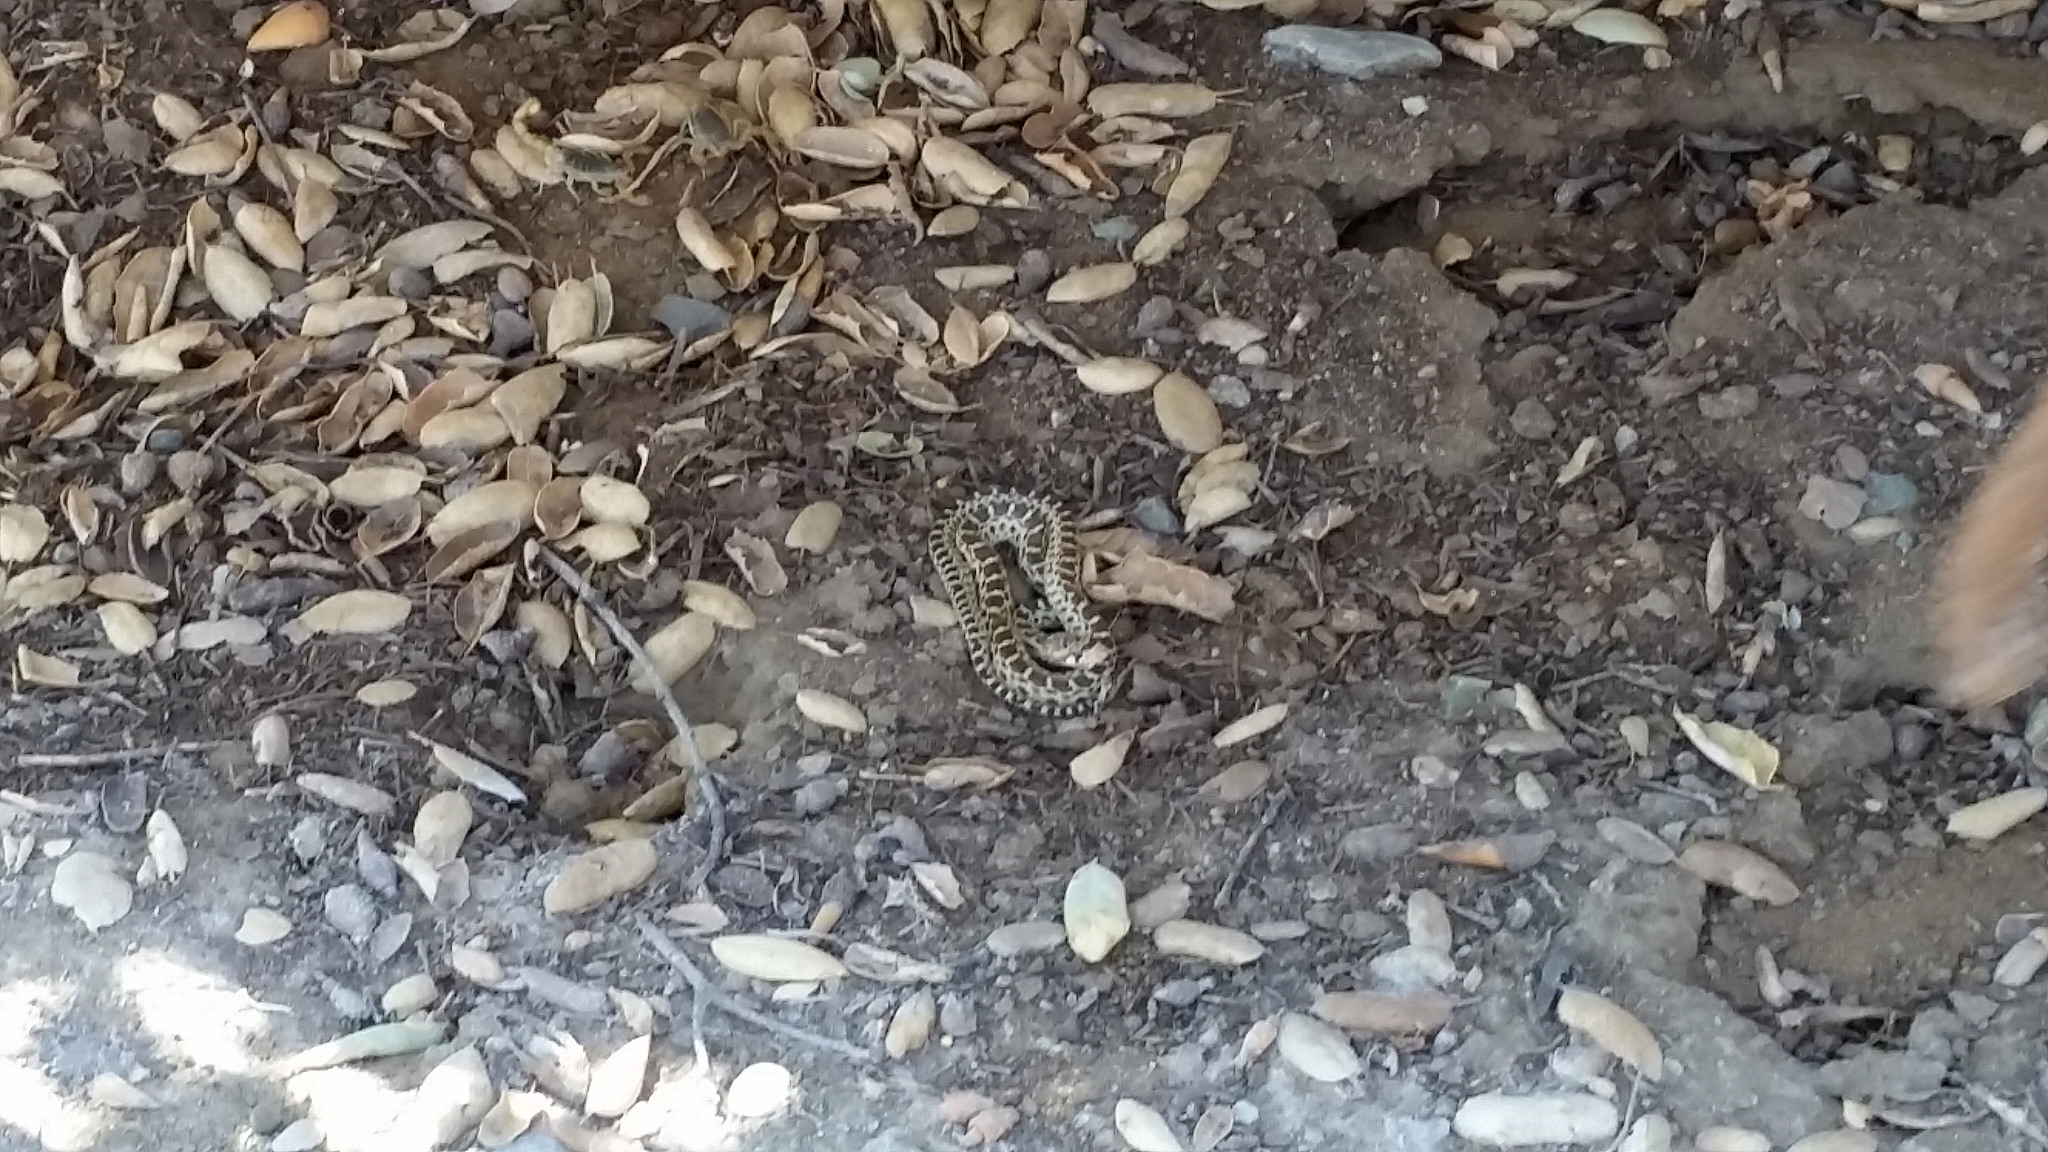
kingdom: Animalia
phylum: Chordata
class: Squamata
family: Colubridae
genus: Pituophis
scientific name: Pituophis catenifer
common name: Gopher snake
